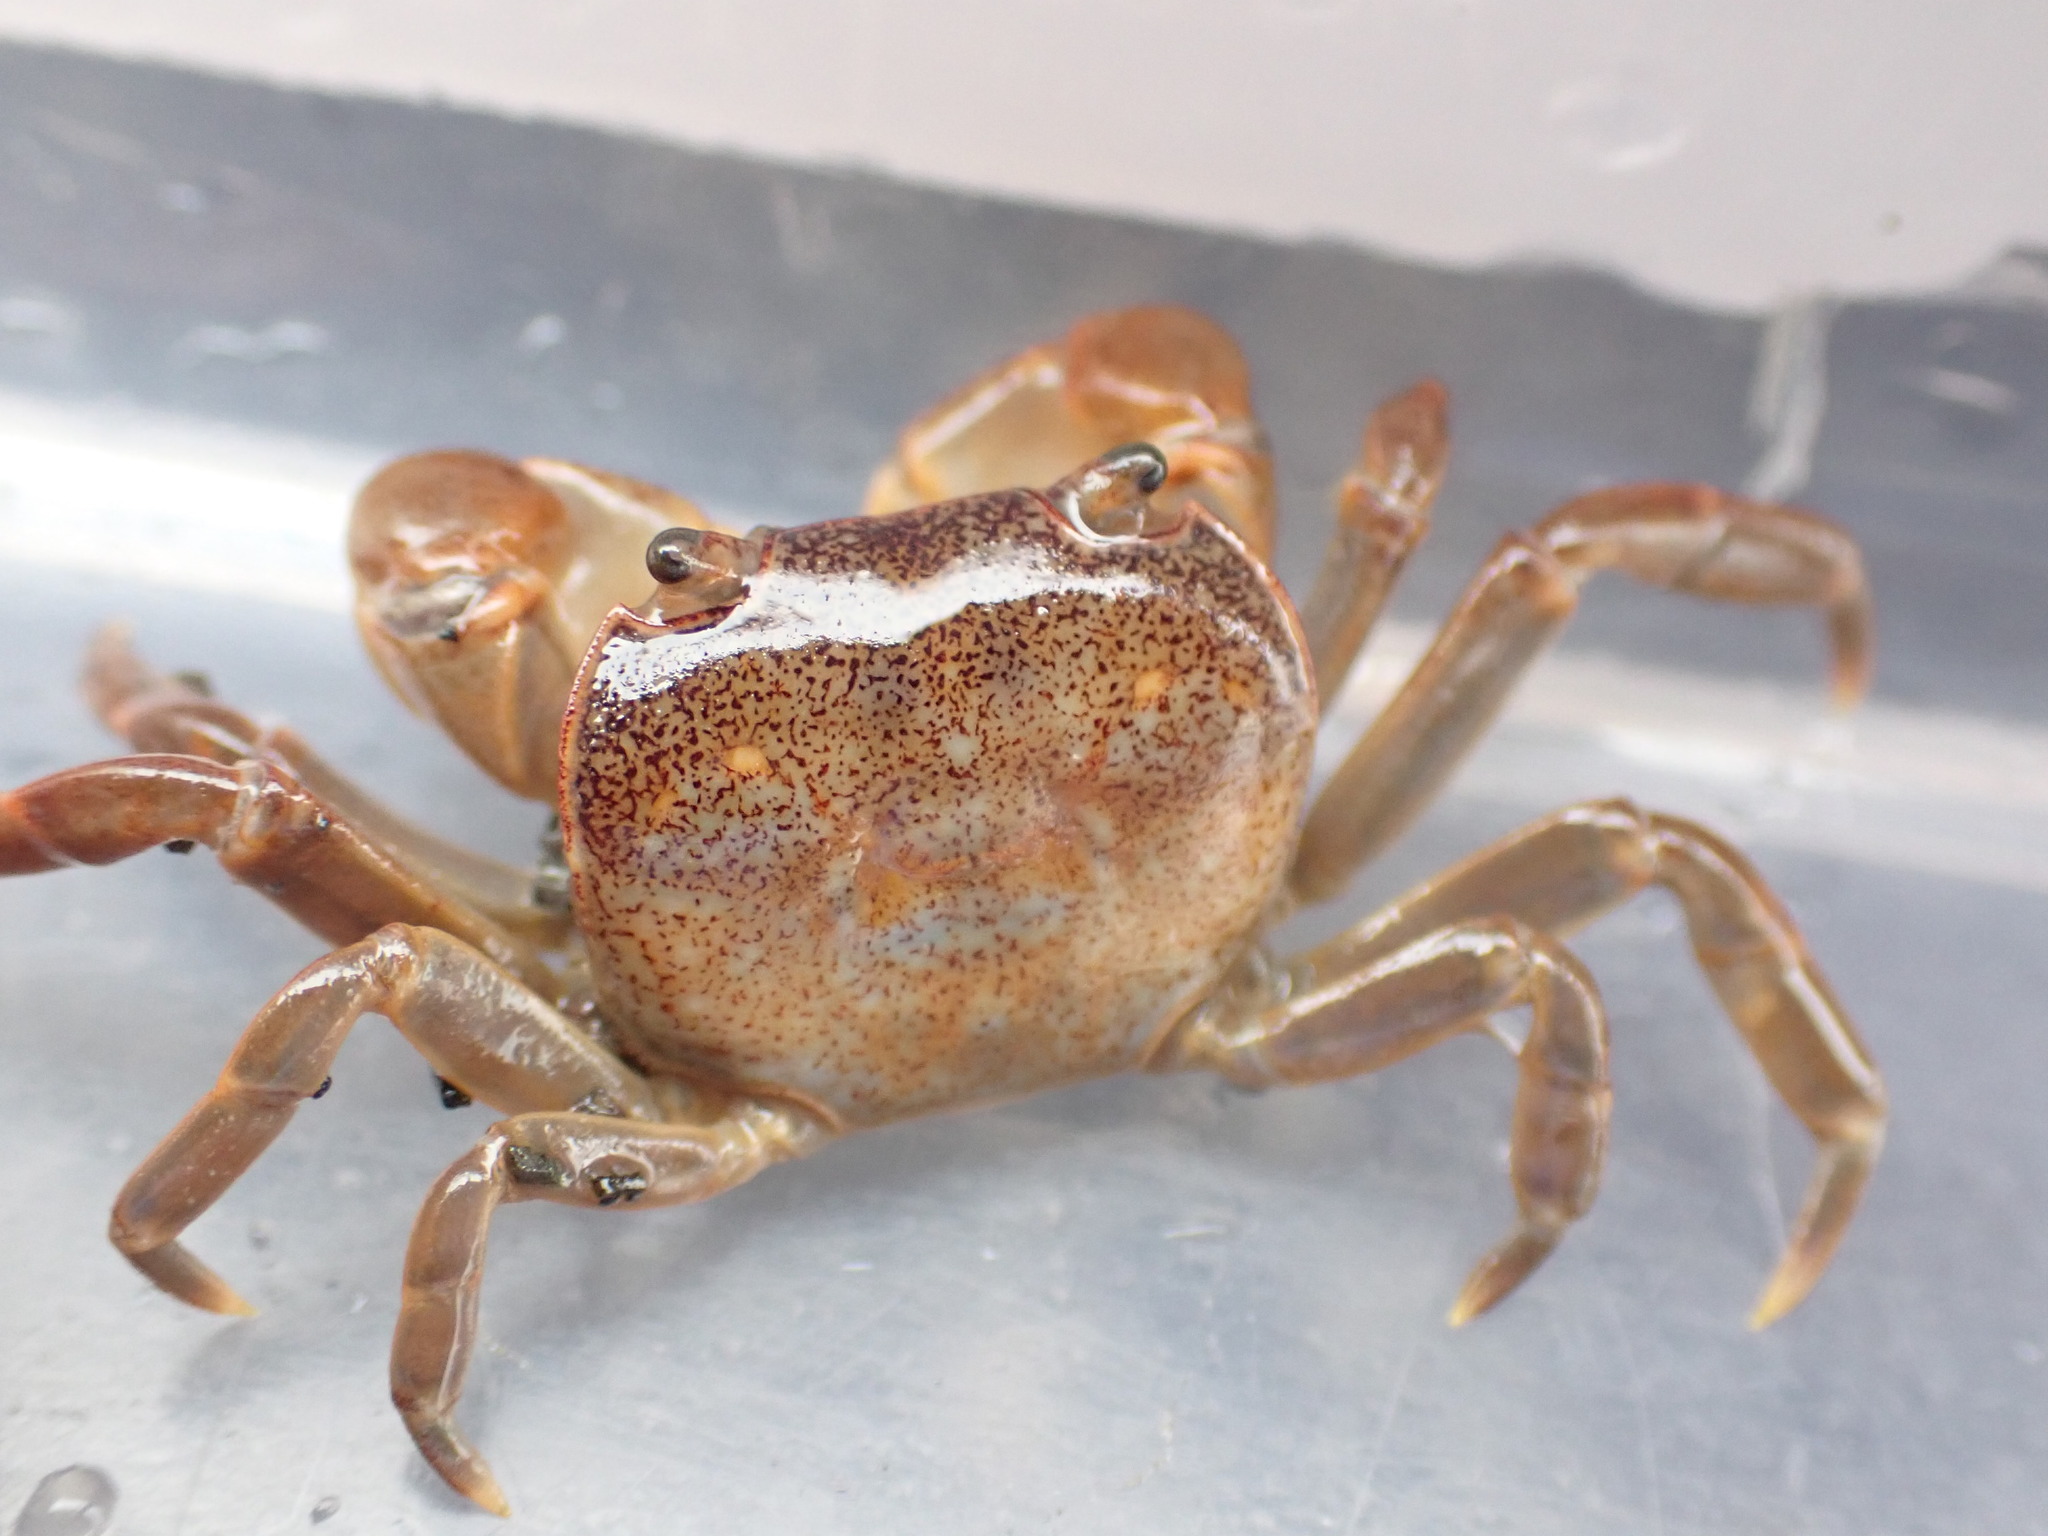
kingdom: Animalia
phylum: Arthropoda
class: Malacostraca
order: Decapoda
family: Varunidae
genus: Cyclograpsus
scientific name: Cyclograpsus lavauxi
